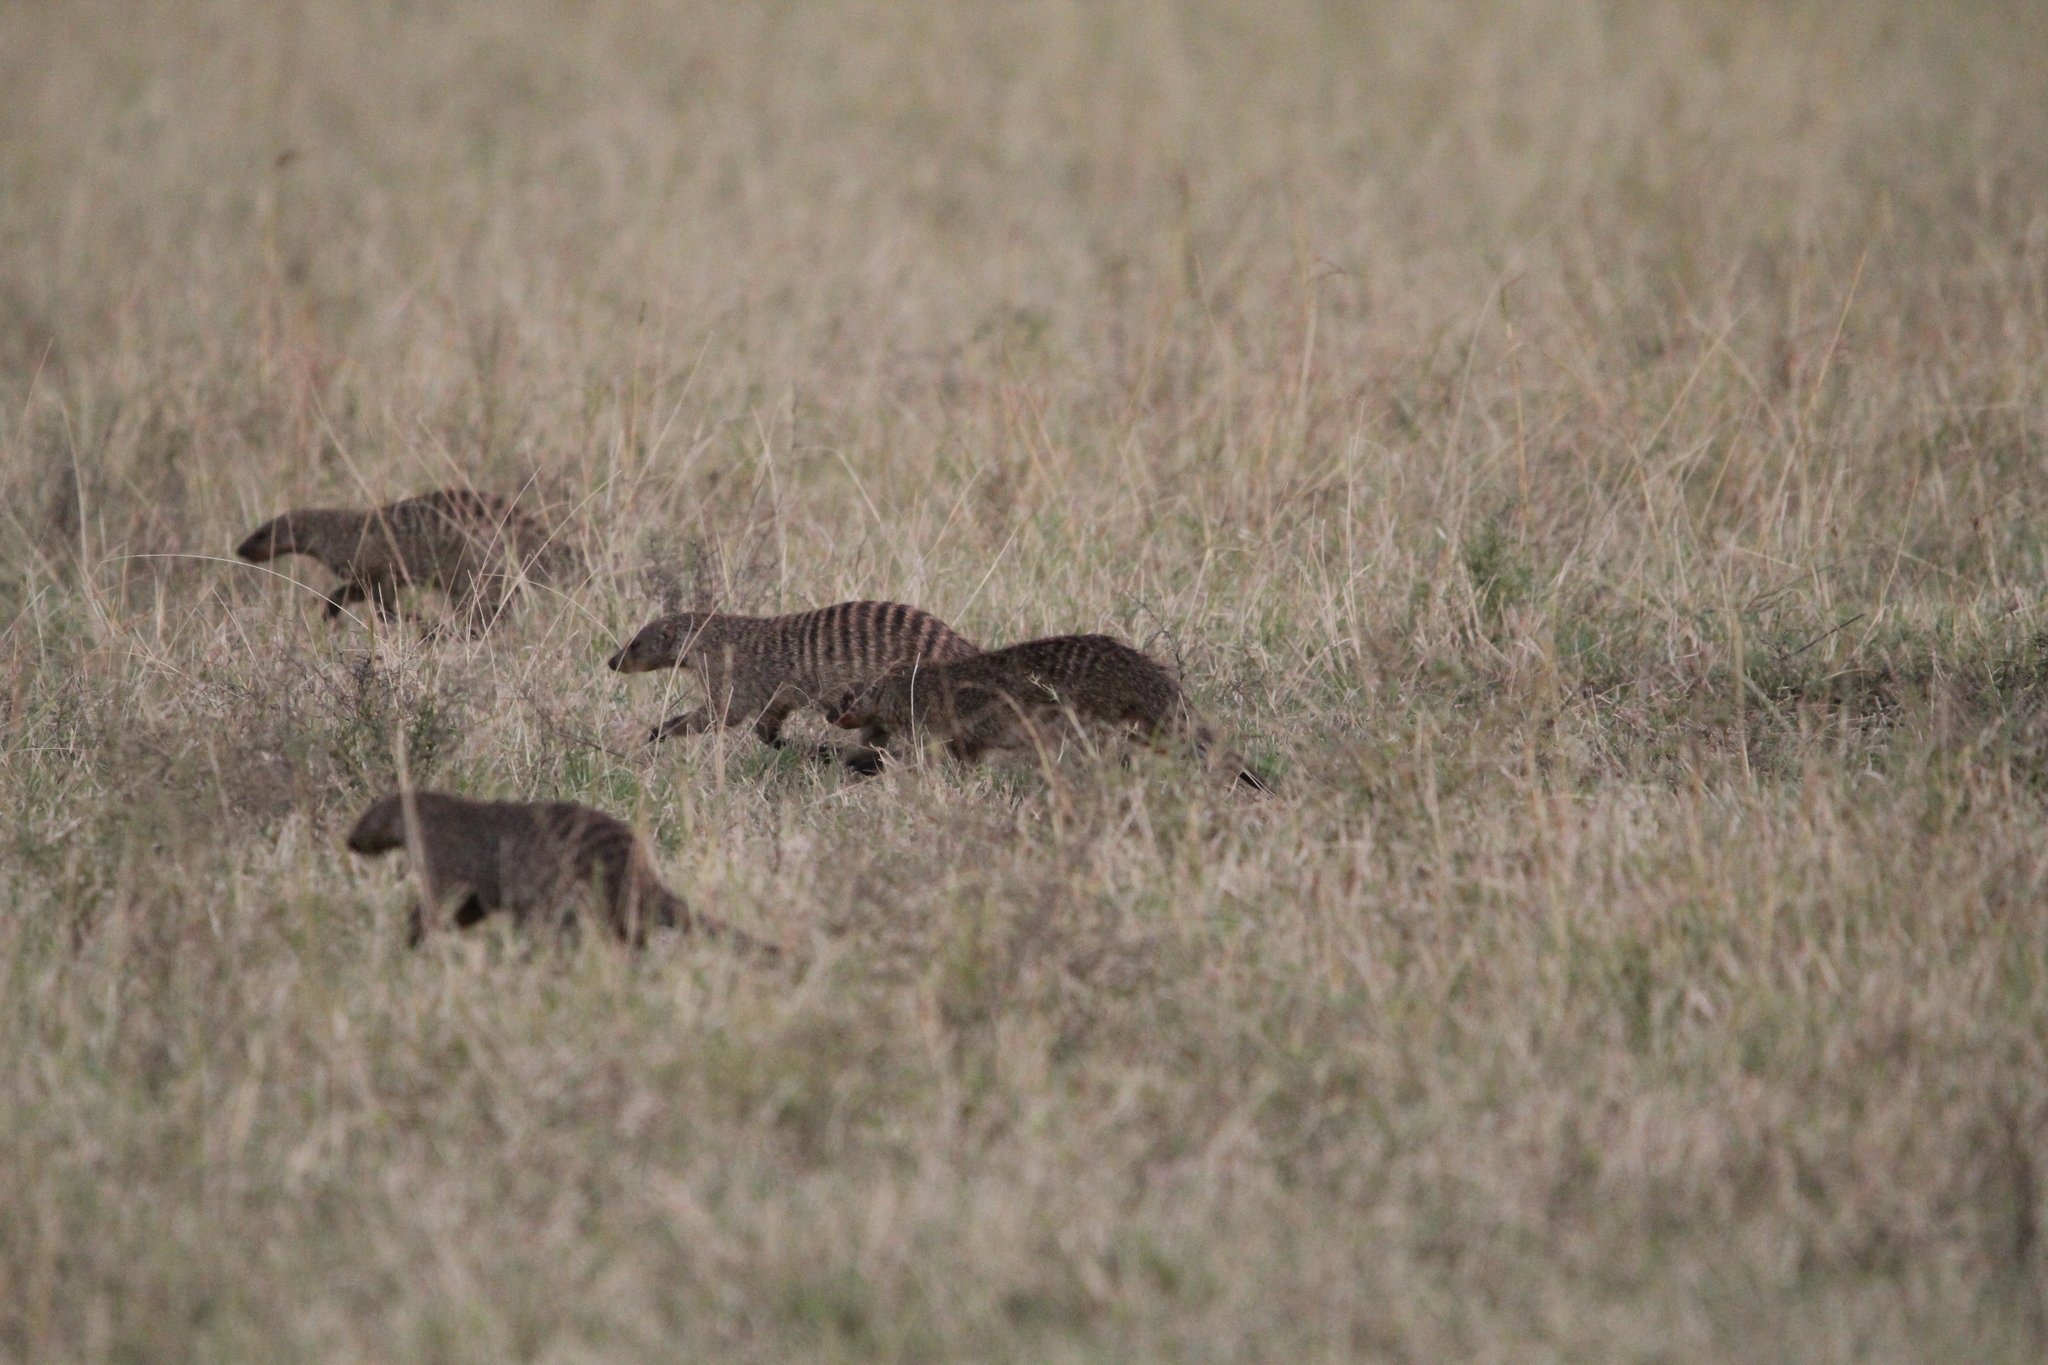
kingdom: Animalia
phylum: Chordata
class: Mammalia
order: Carnivora
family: Herpestidae
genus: Mungos
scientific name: Mungos mungo
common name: Banded mongoose
